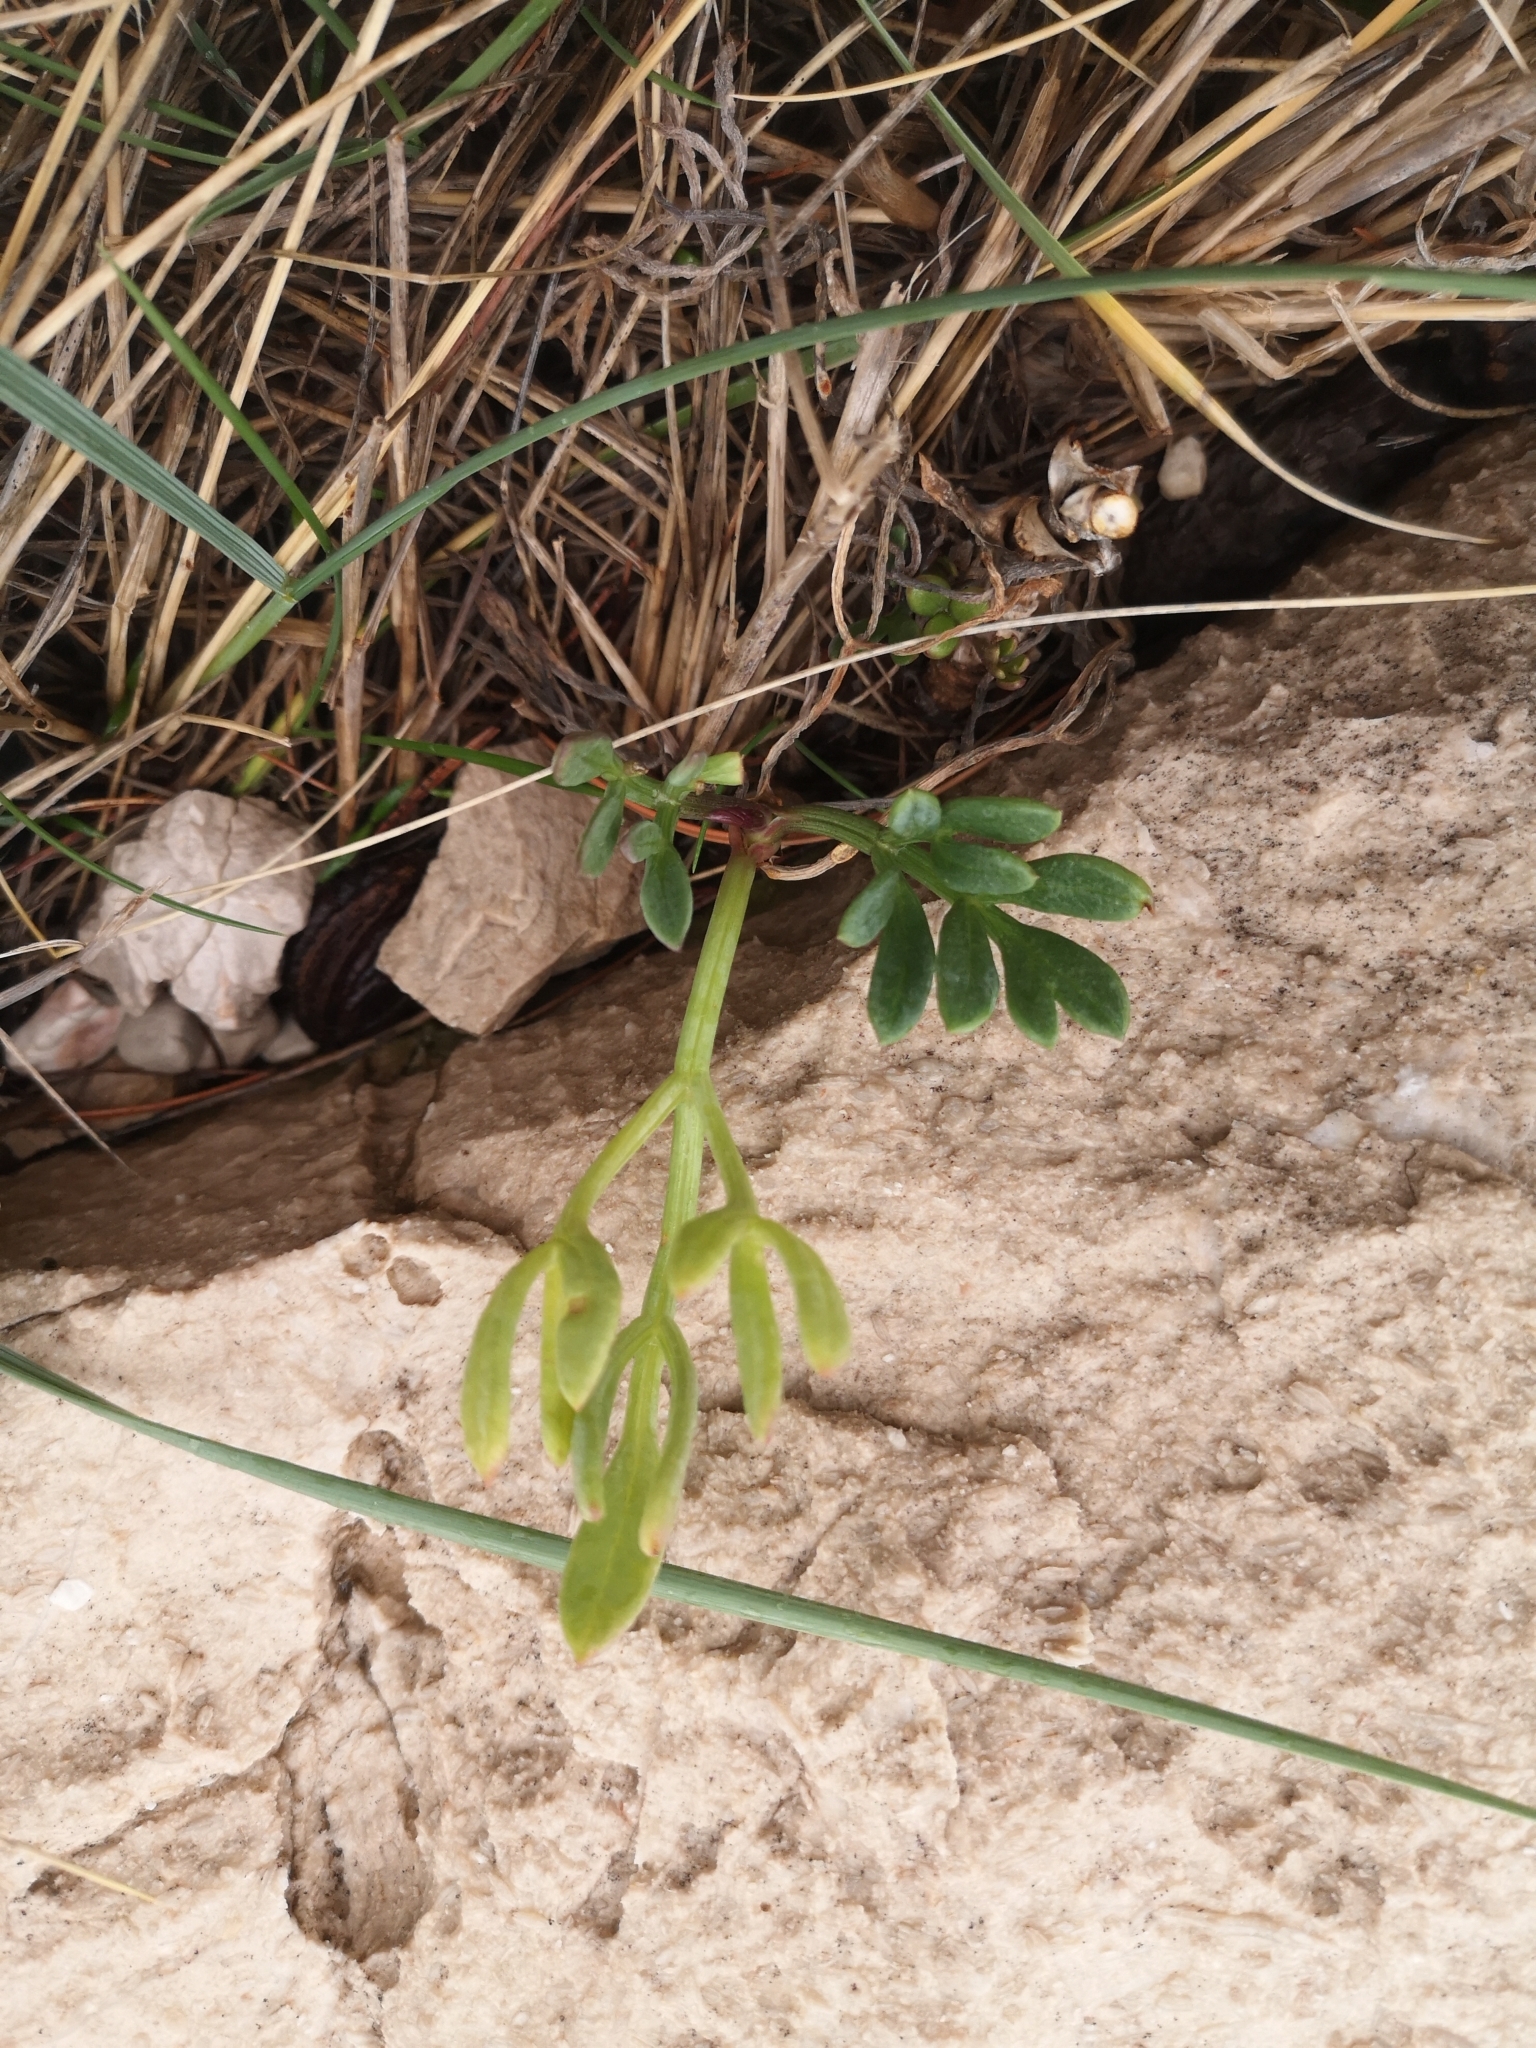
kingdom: Plantae
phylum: Tracheophyta
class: Magnoliopsida
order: Apiales
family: Apiaceae
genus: Crithmum
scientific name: Crithmum maritimum
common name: Rock samphire
